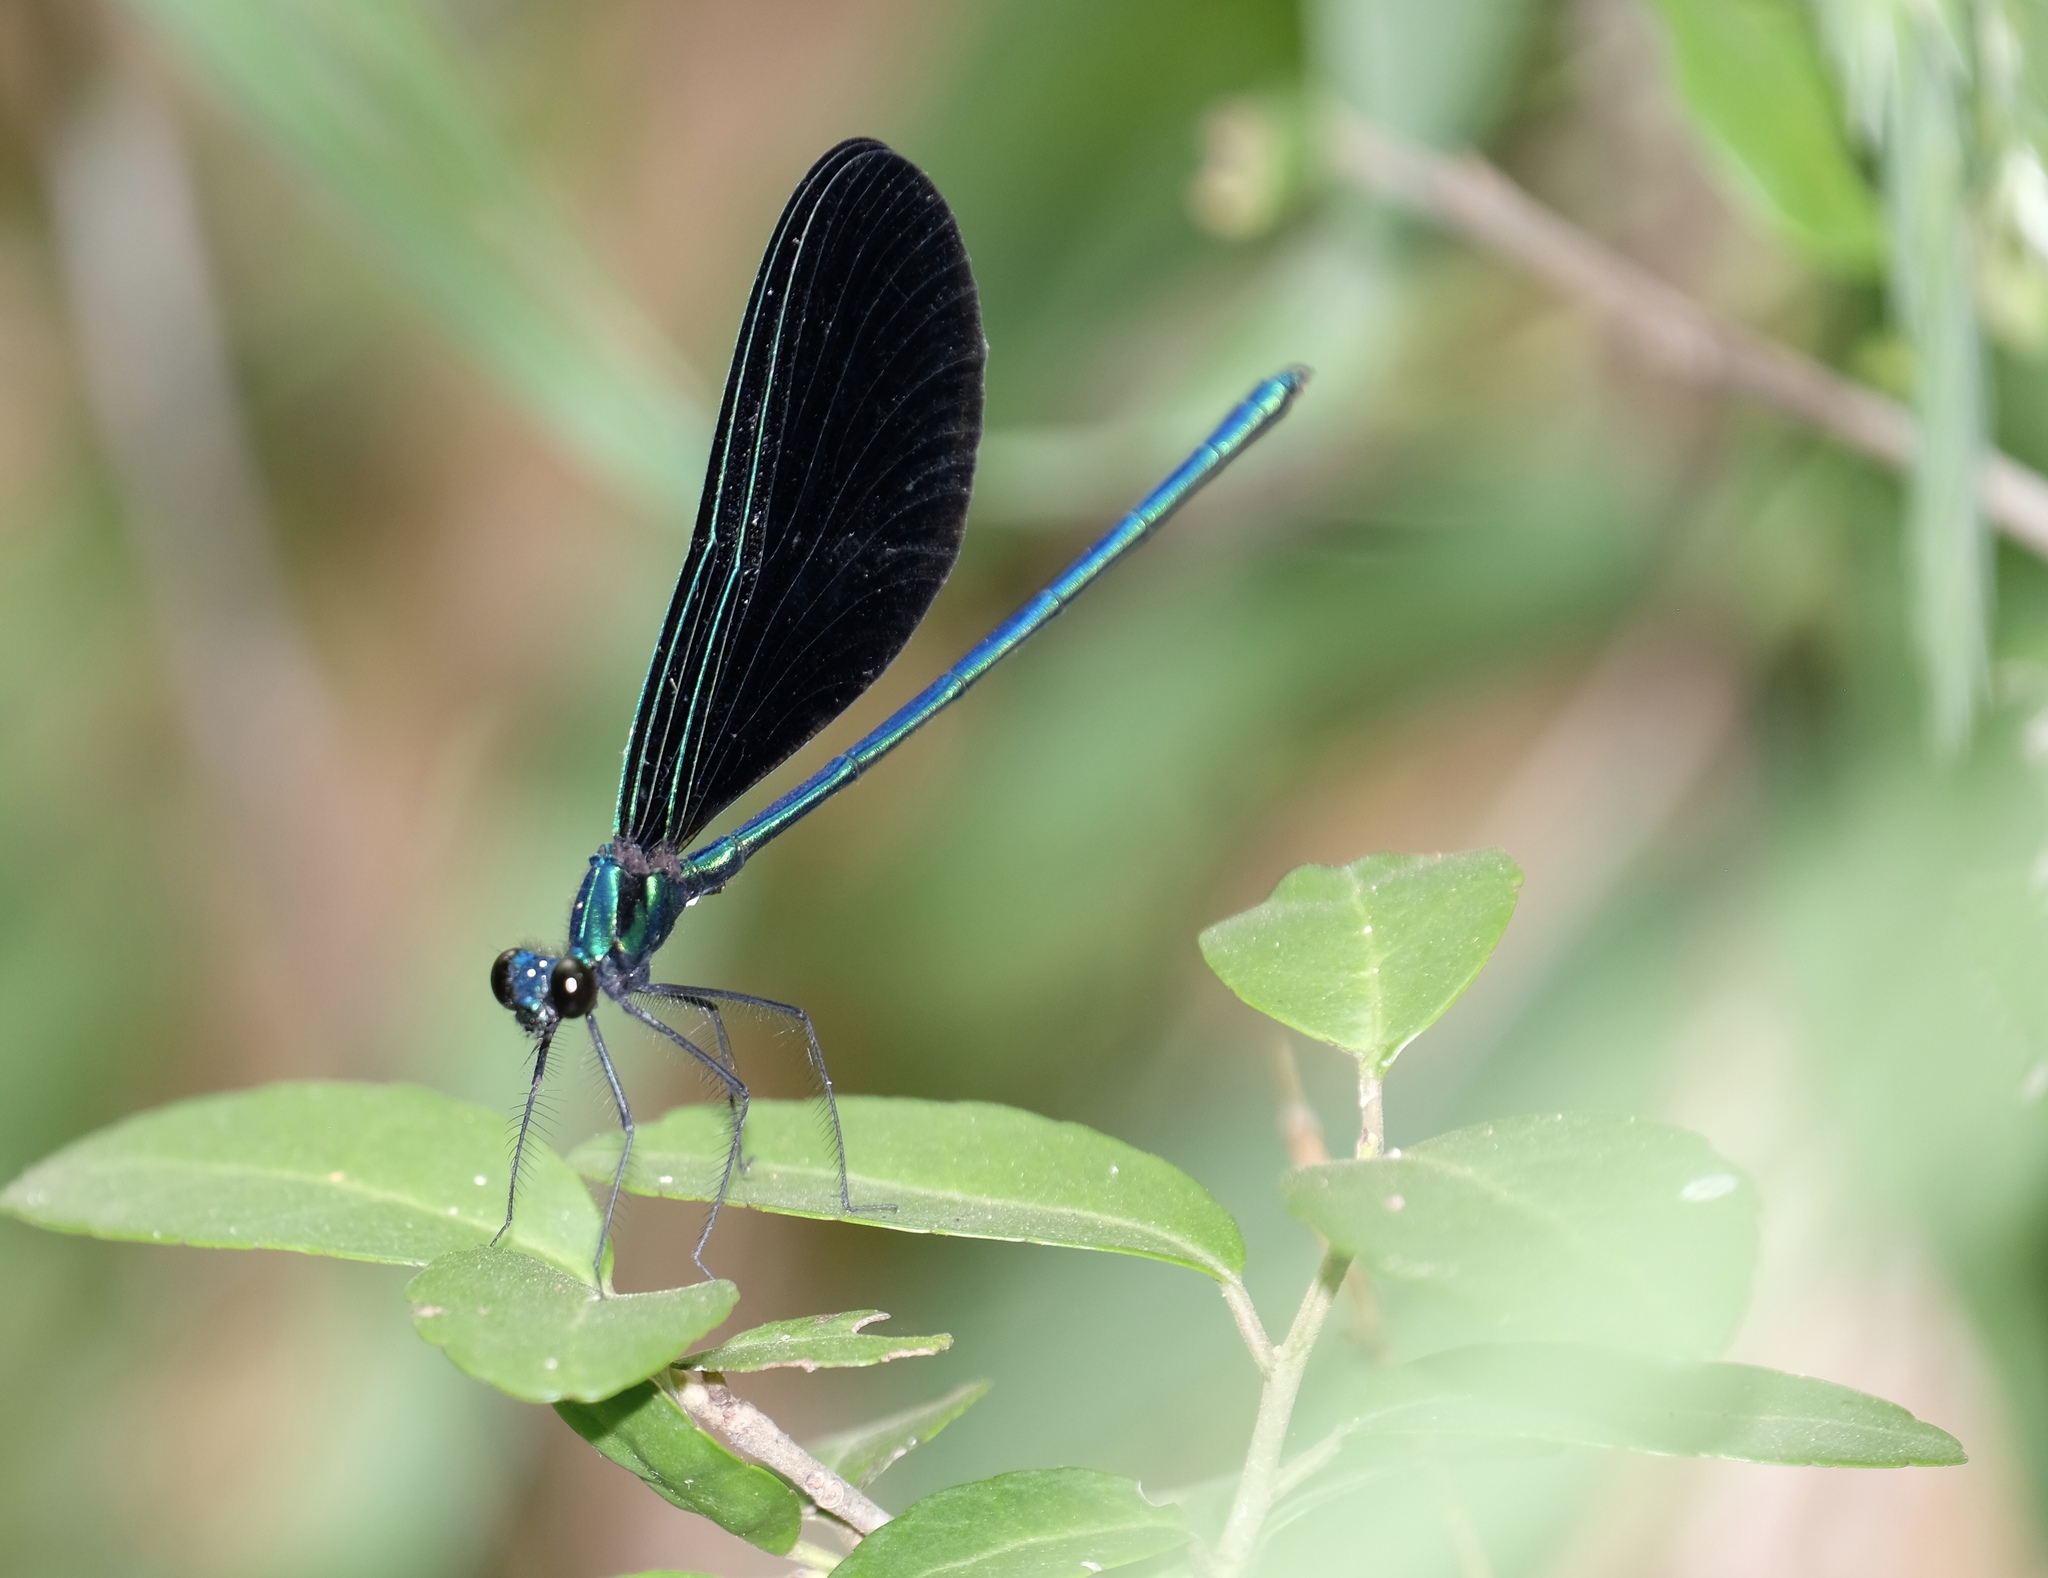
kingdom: Animalia
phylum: Arthropoda
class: Insecta
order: Odonata
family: Calopterygidae
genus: Calopteryx
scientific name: Calopteryx maculata
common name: Ebony jewelwing
